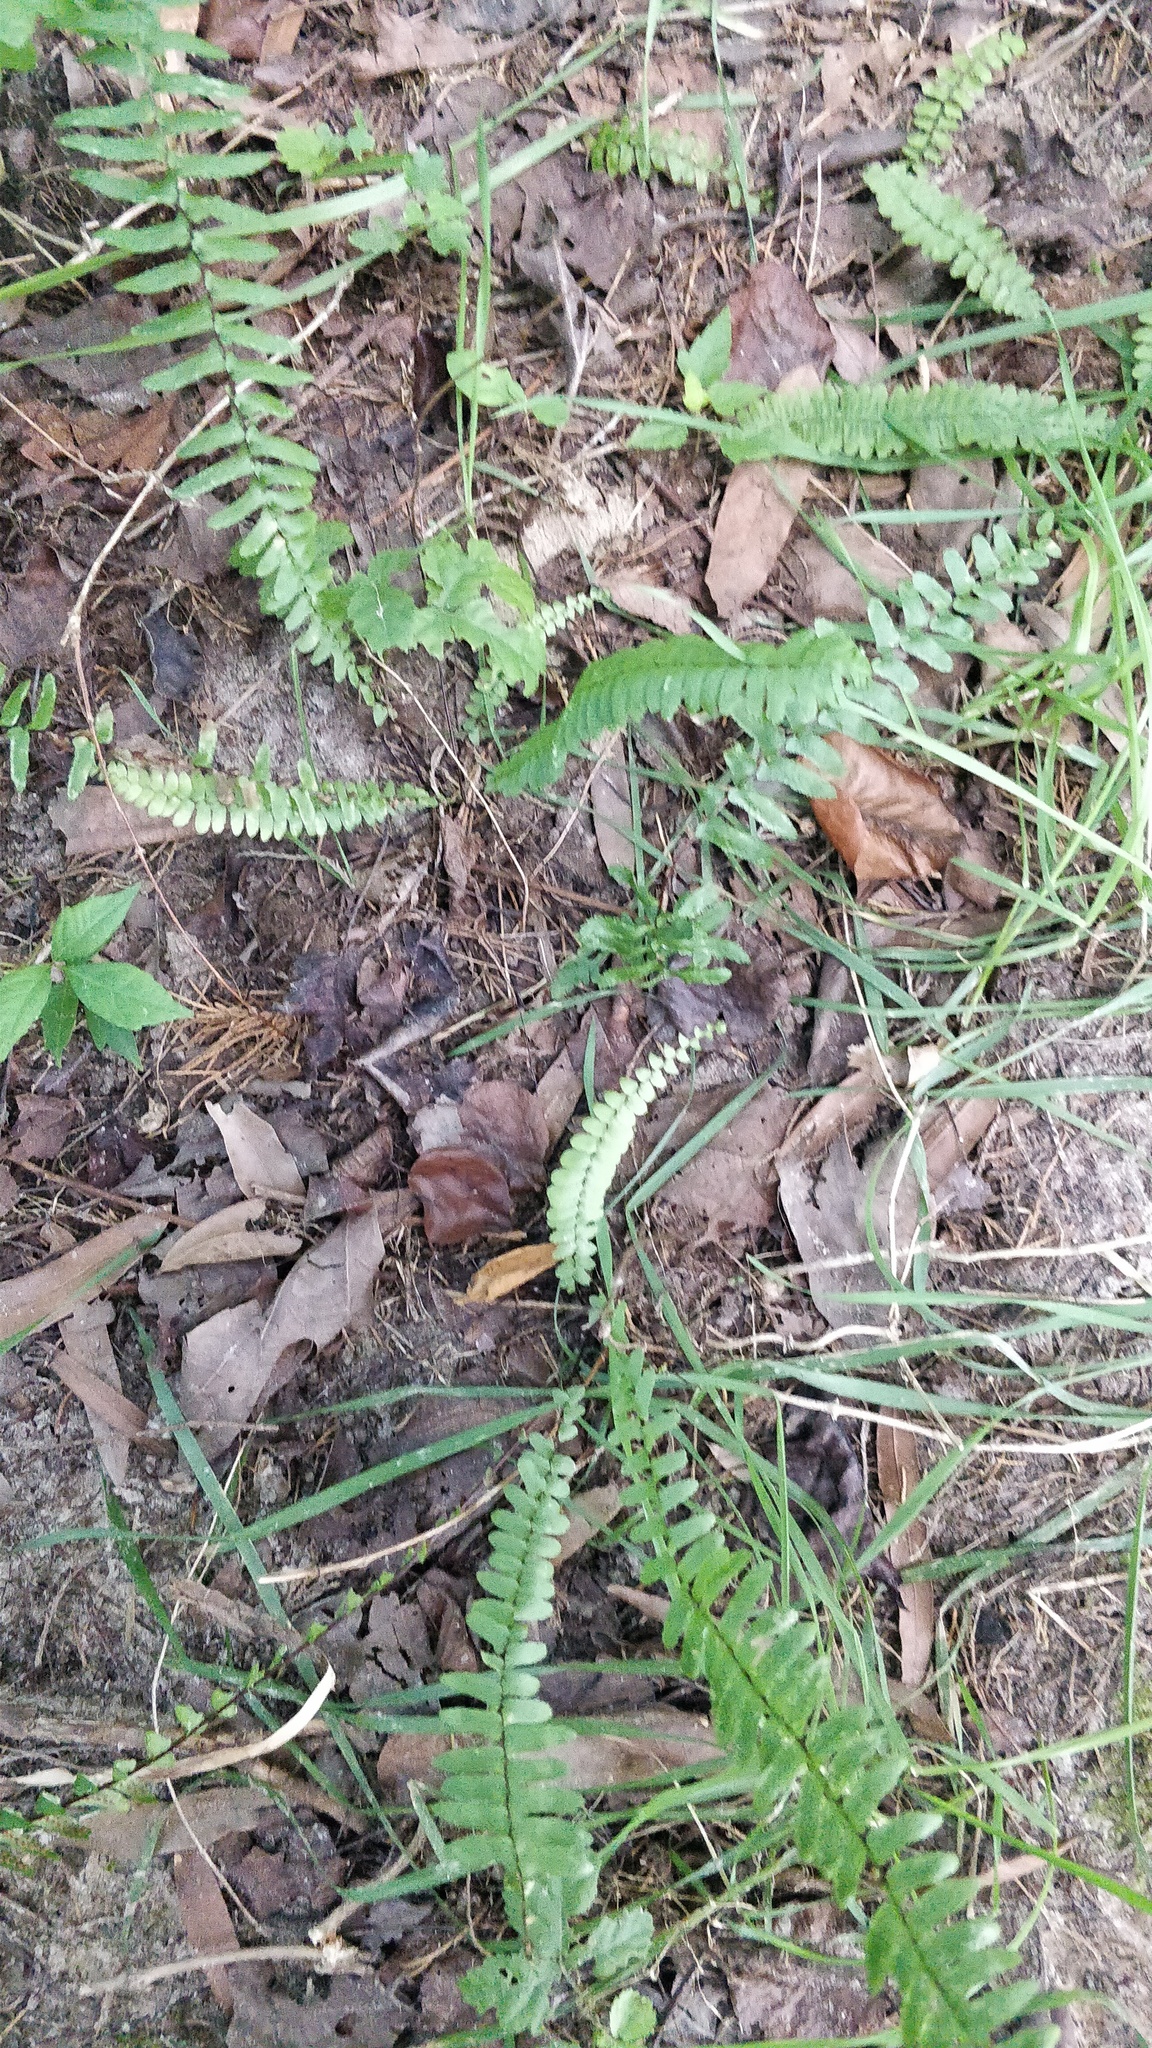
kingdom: Plantae
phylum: Tracheophyta
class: Polypodiopsida
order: Polypodiales
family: Aspleniaceae
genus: Asplenium
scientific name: Asplenium platyneuron
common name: Ebony spleenwort
